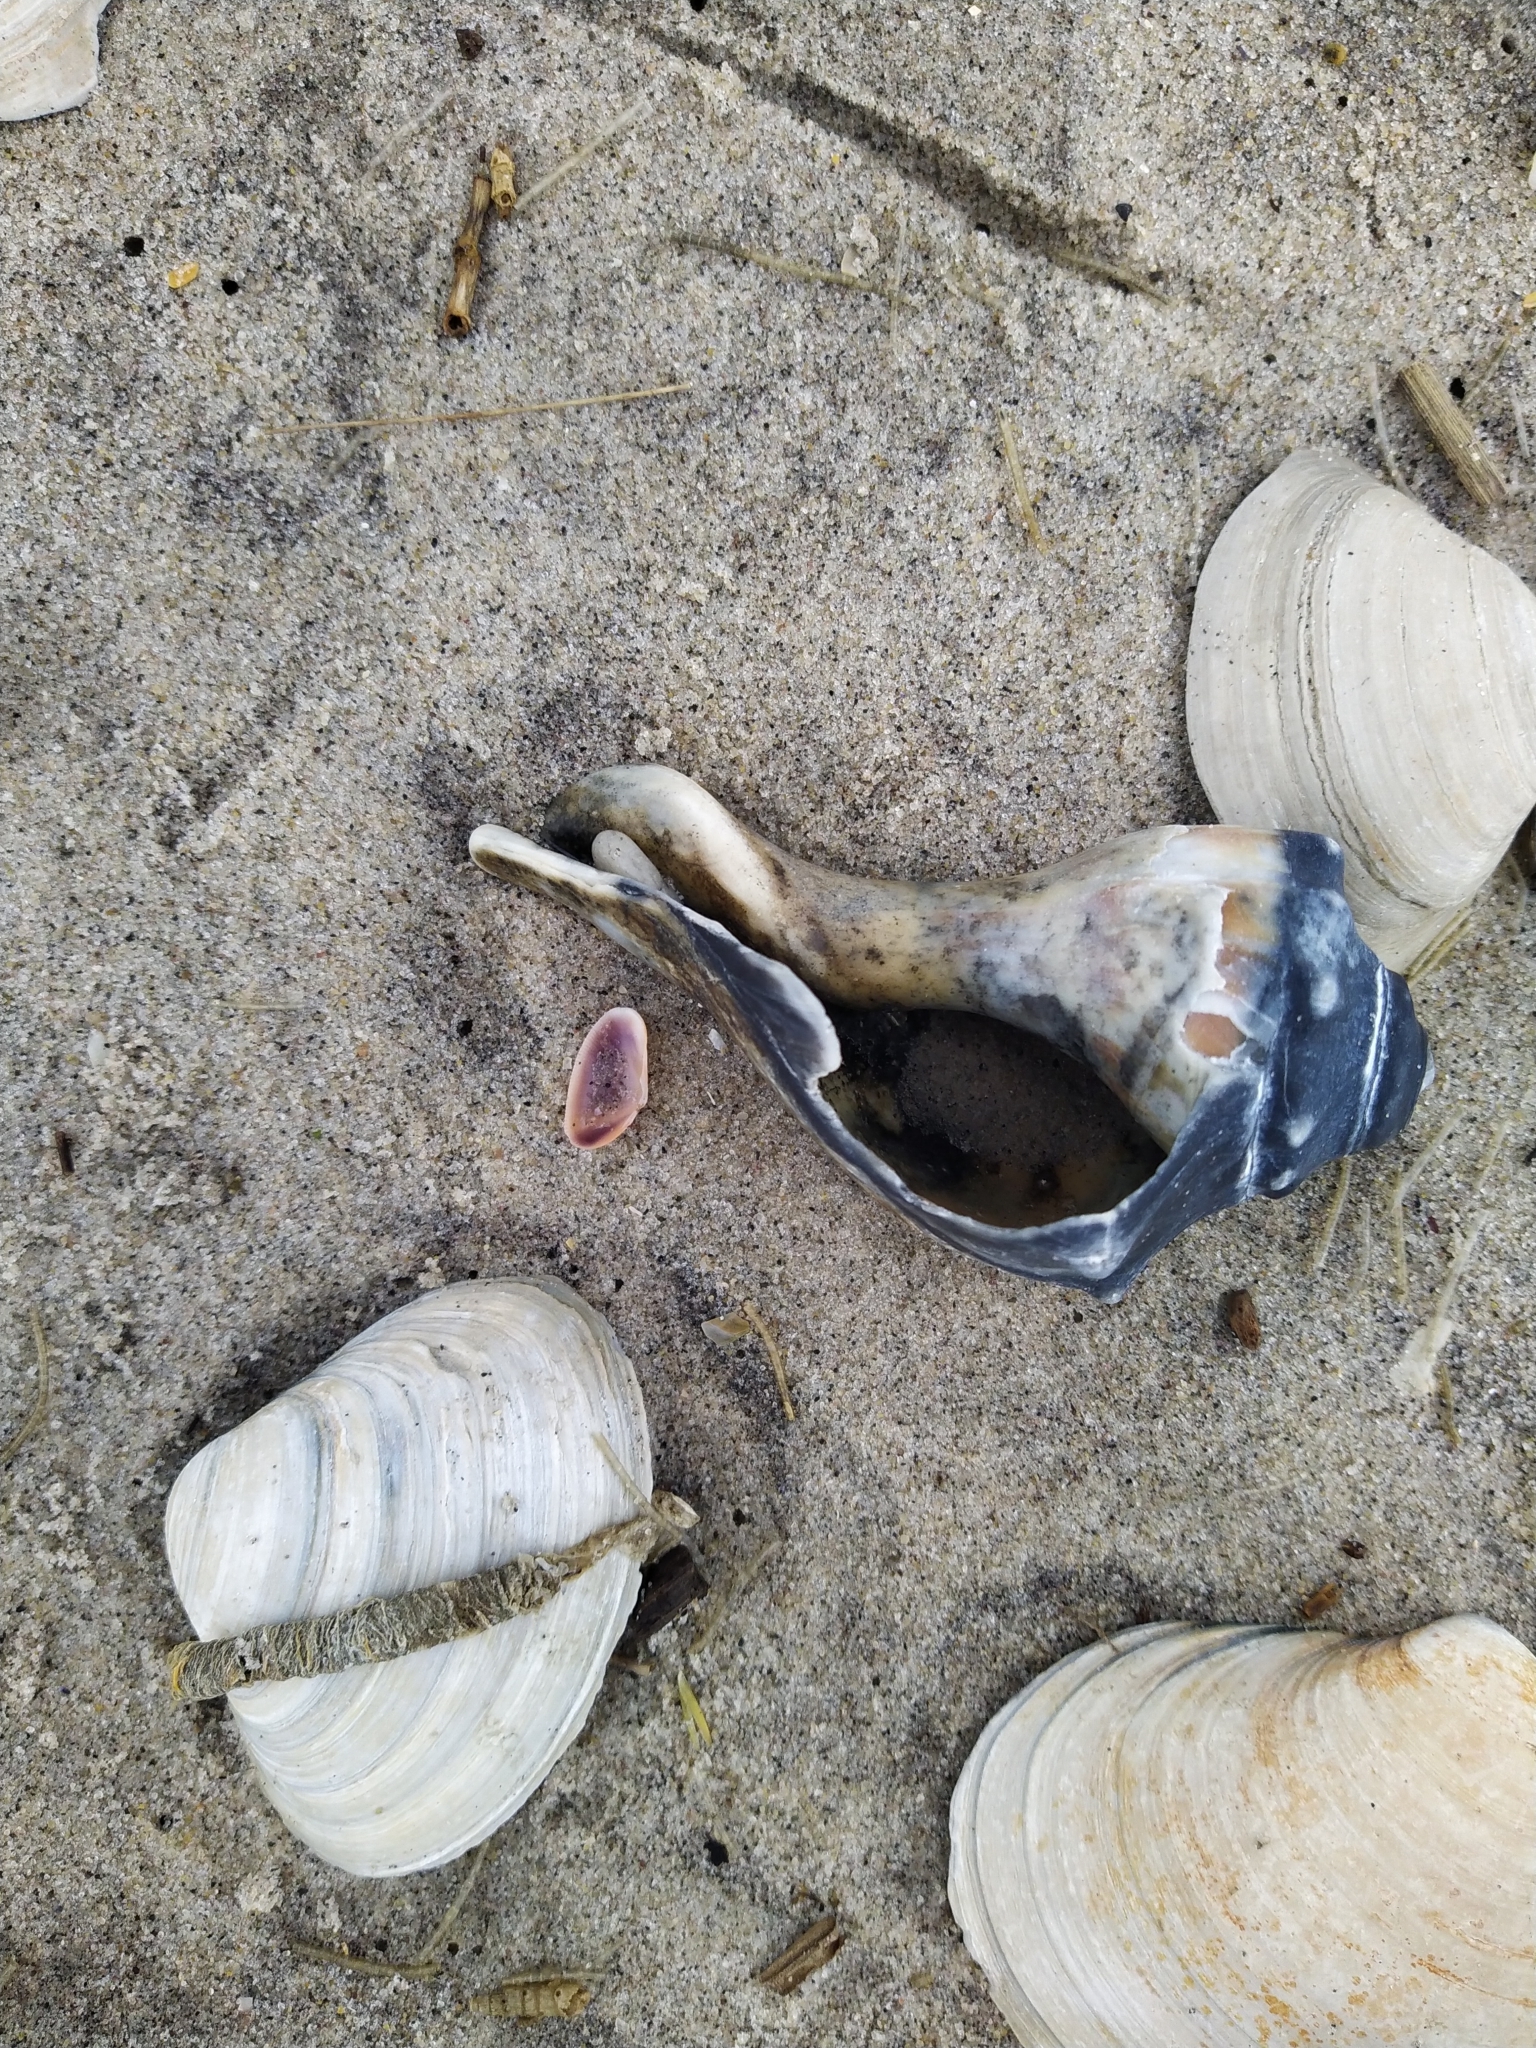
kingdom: Animalia
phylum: Mollusca
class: Gastropoda
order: Neogastropoda
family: Busyconidae
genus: Busycon
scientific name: Busycon carica
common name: Knobbed whelk
